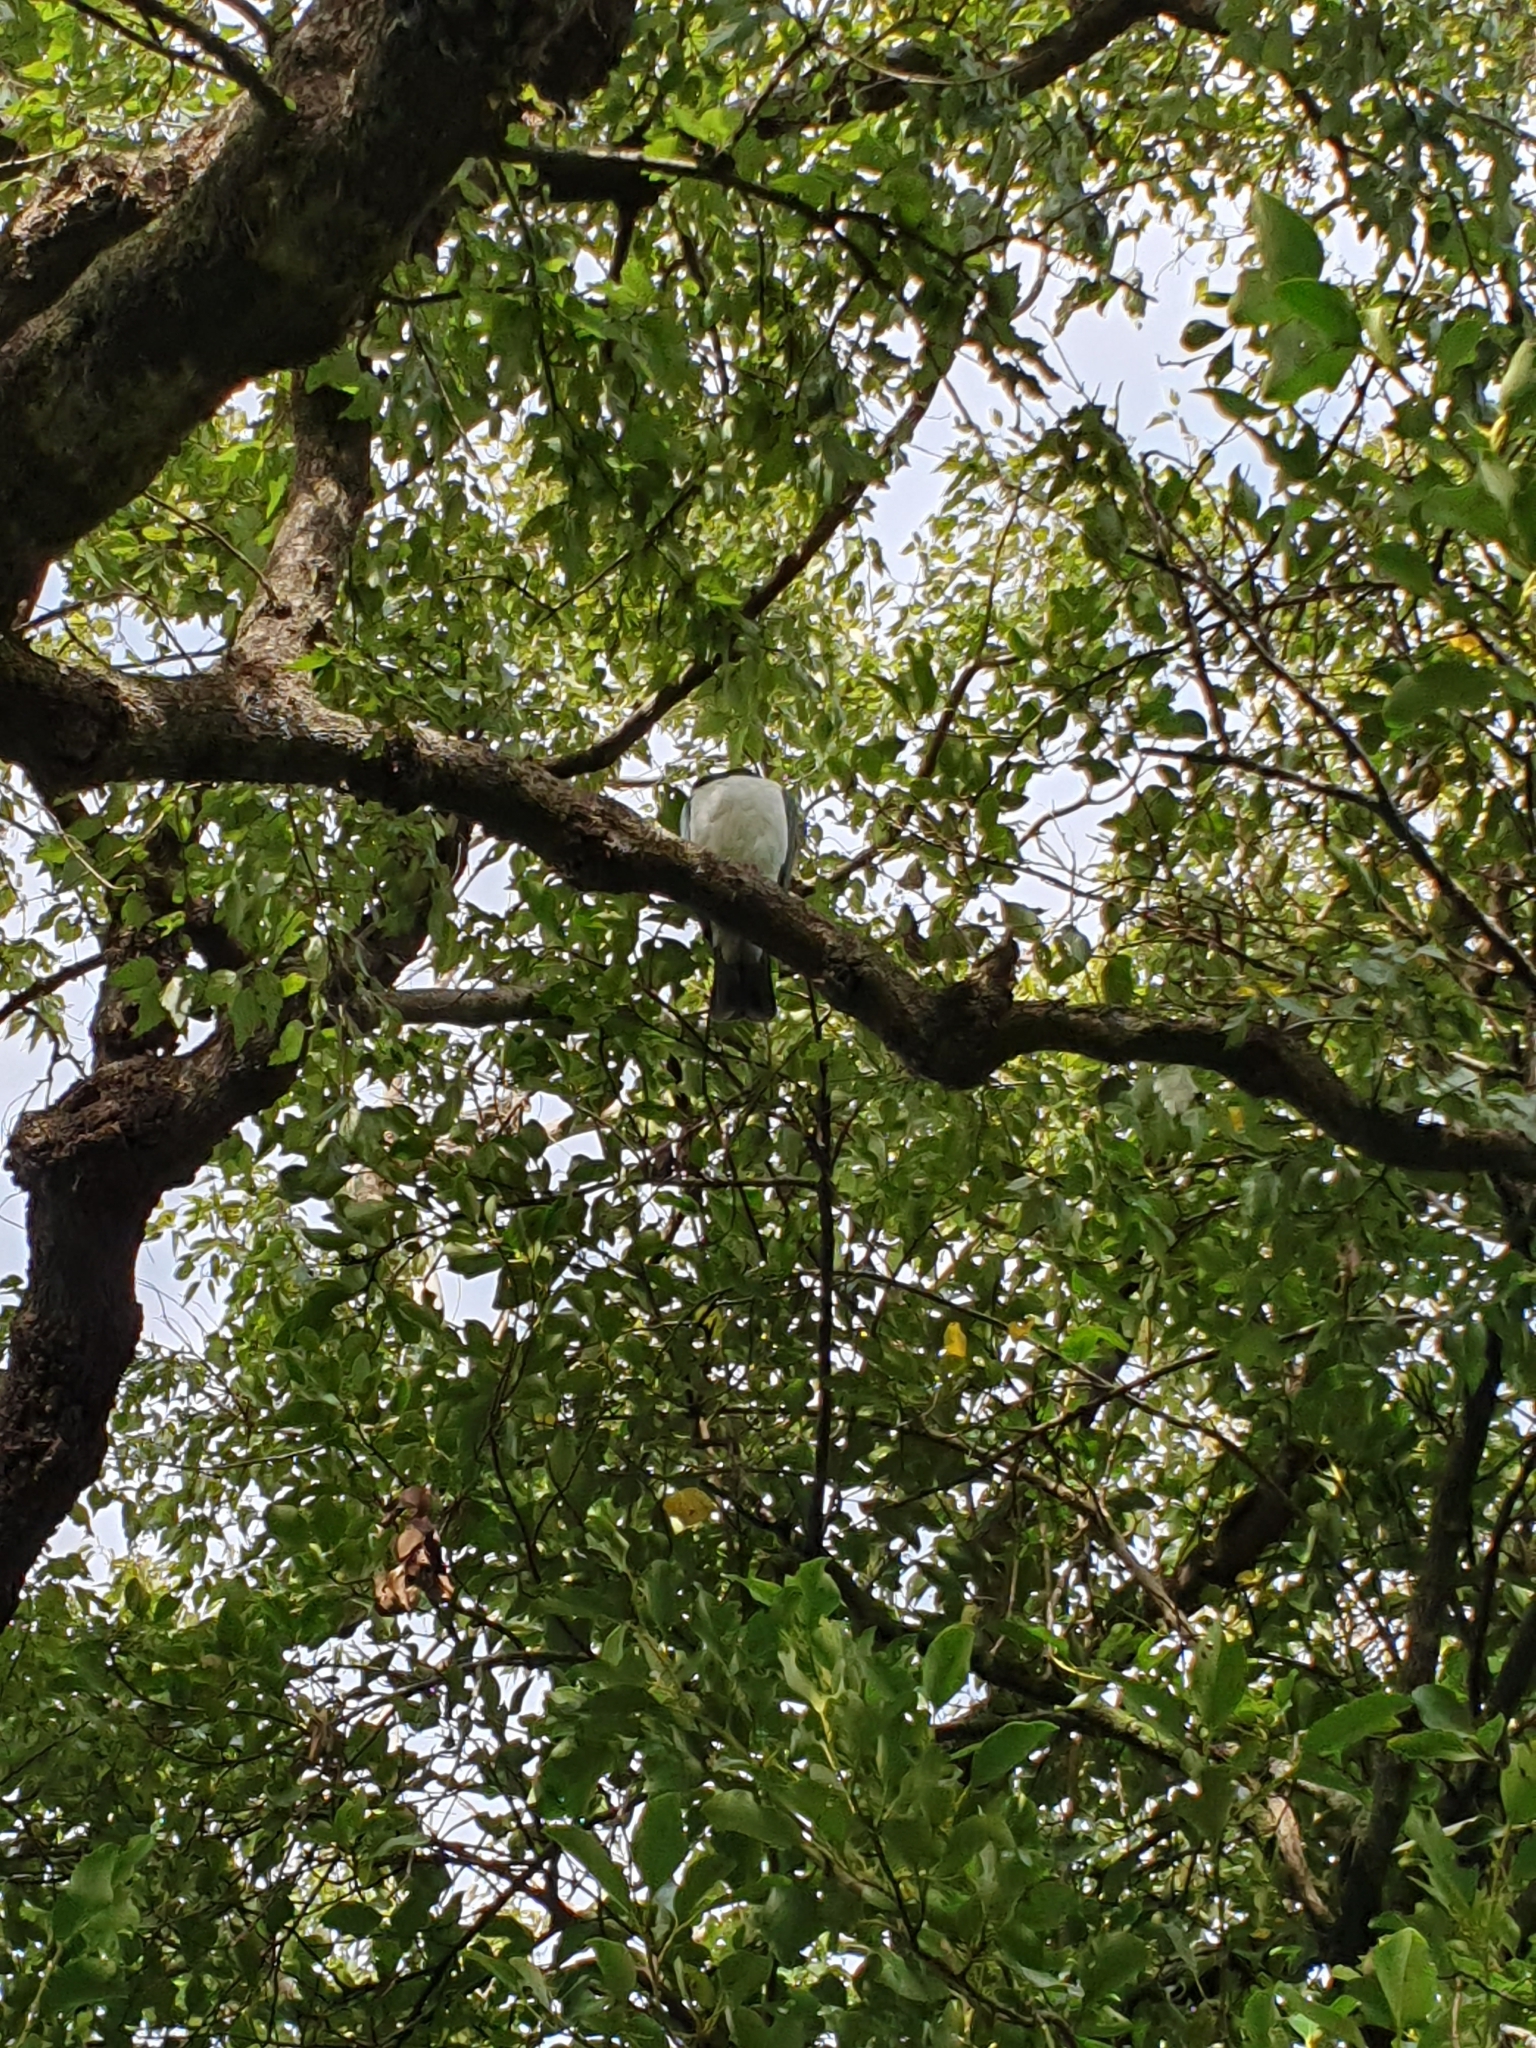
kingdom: Animalia
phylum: Chordata
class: Aves
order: Columbiformes
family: Columbidae
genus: Hemiphaga
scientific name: Hemiphaga novaeseelandiae
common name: New zealand pigeon
